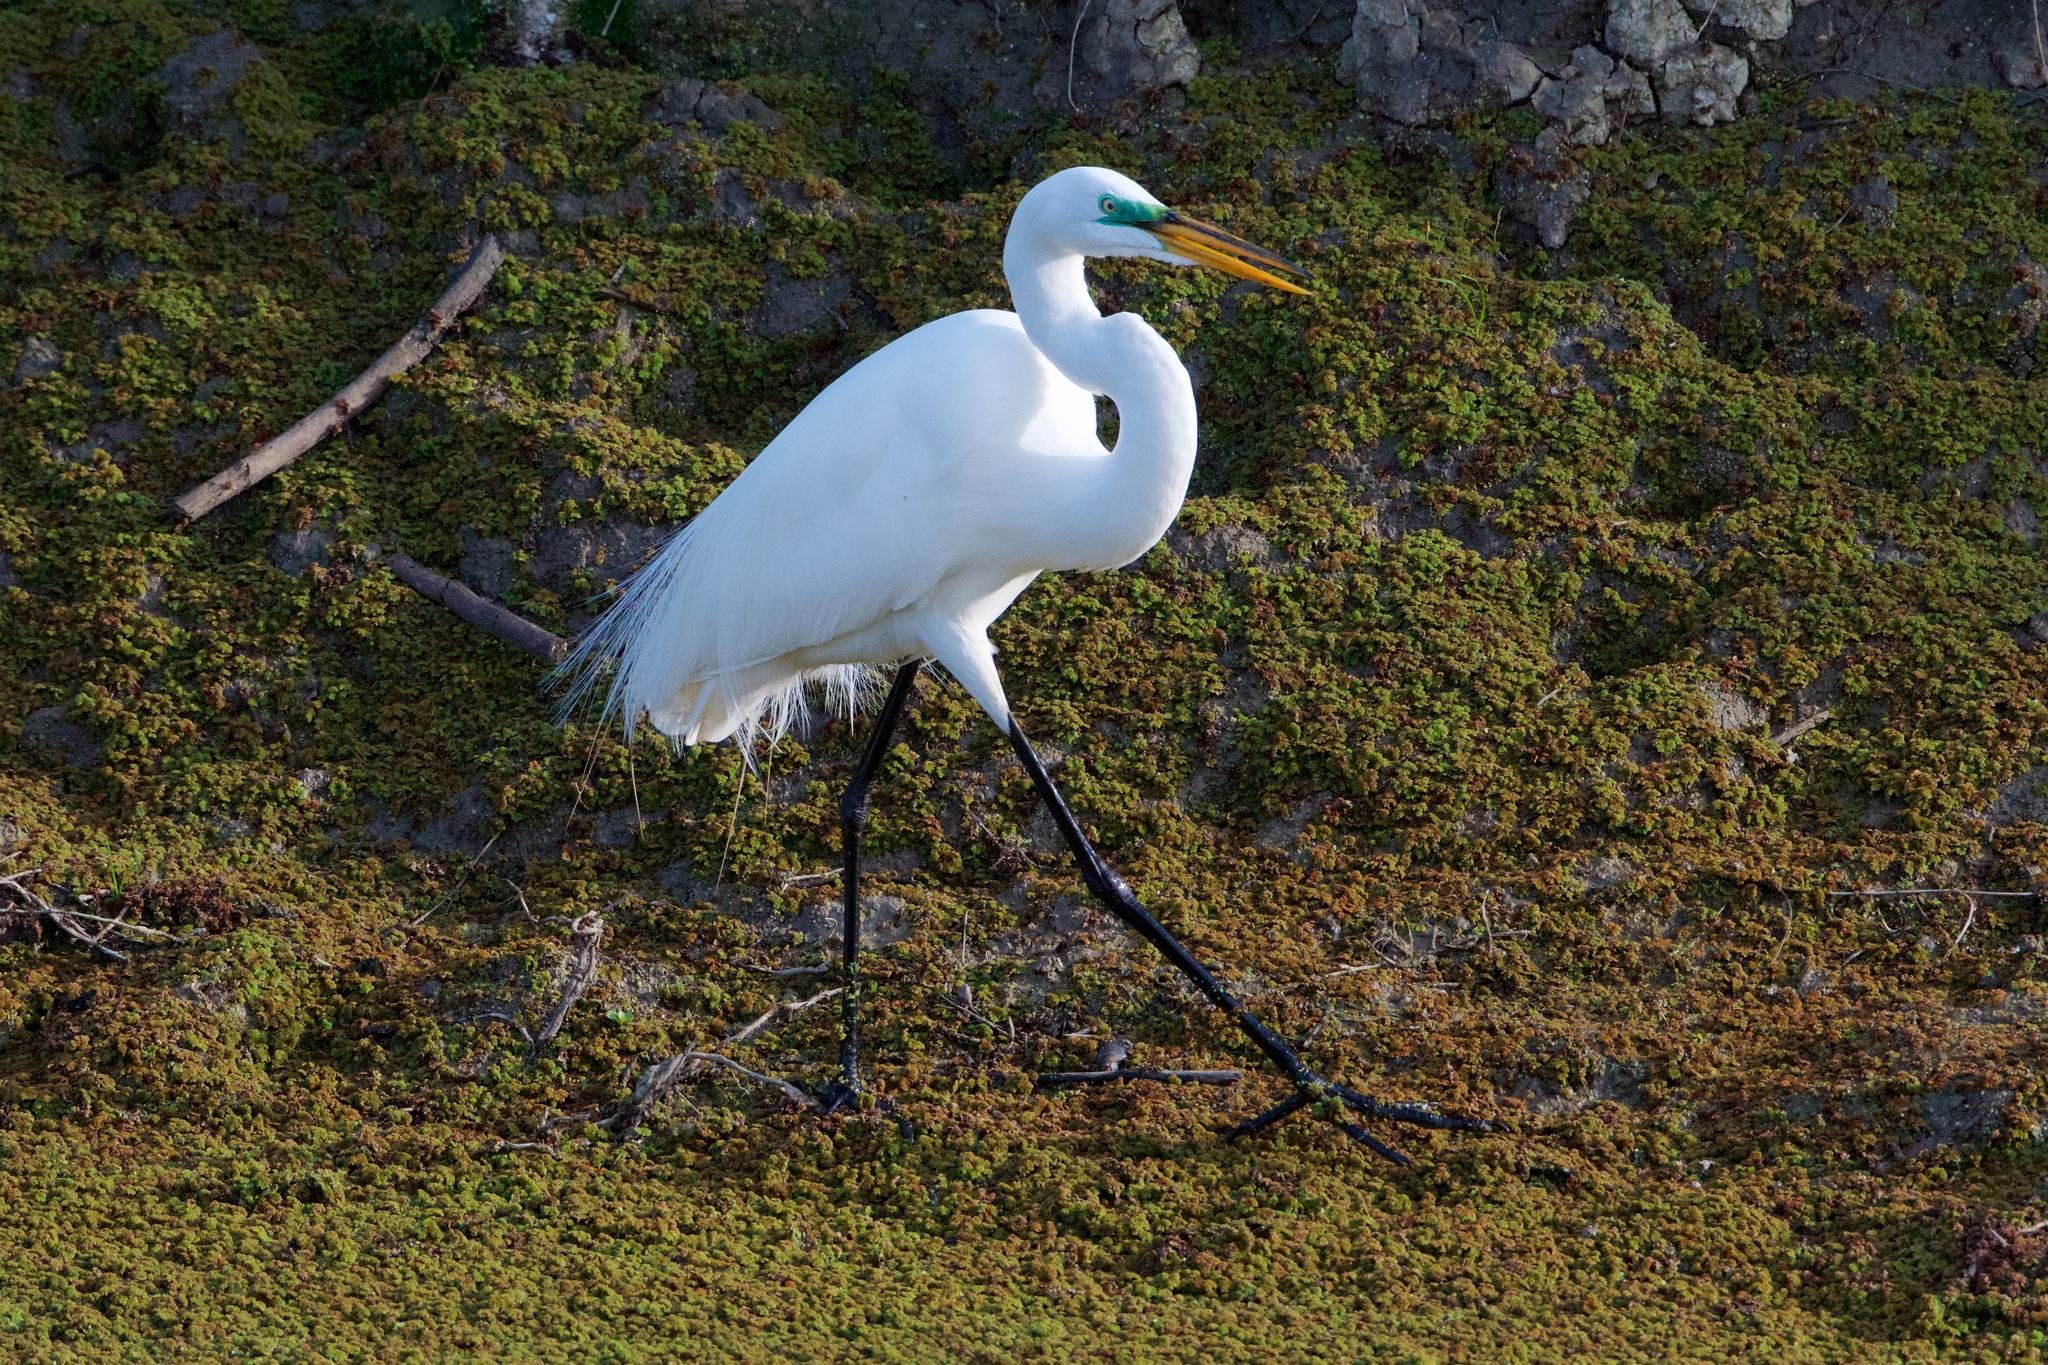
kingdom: Animalia
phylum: Chordata
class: Aves
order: Pelecaniformes
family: Ardeidae
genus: Ardea
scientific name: Ardea alba
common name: Great egret
